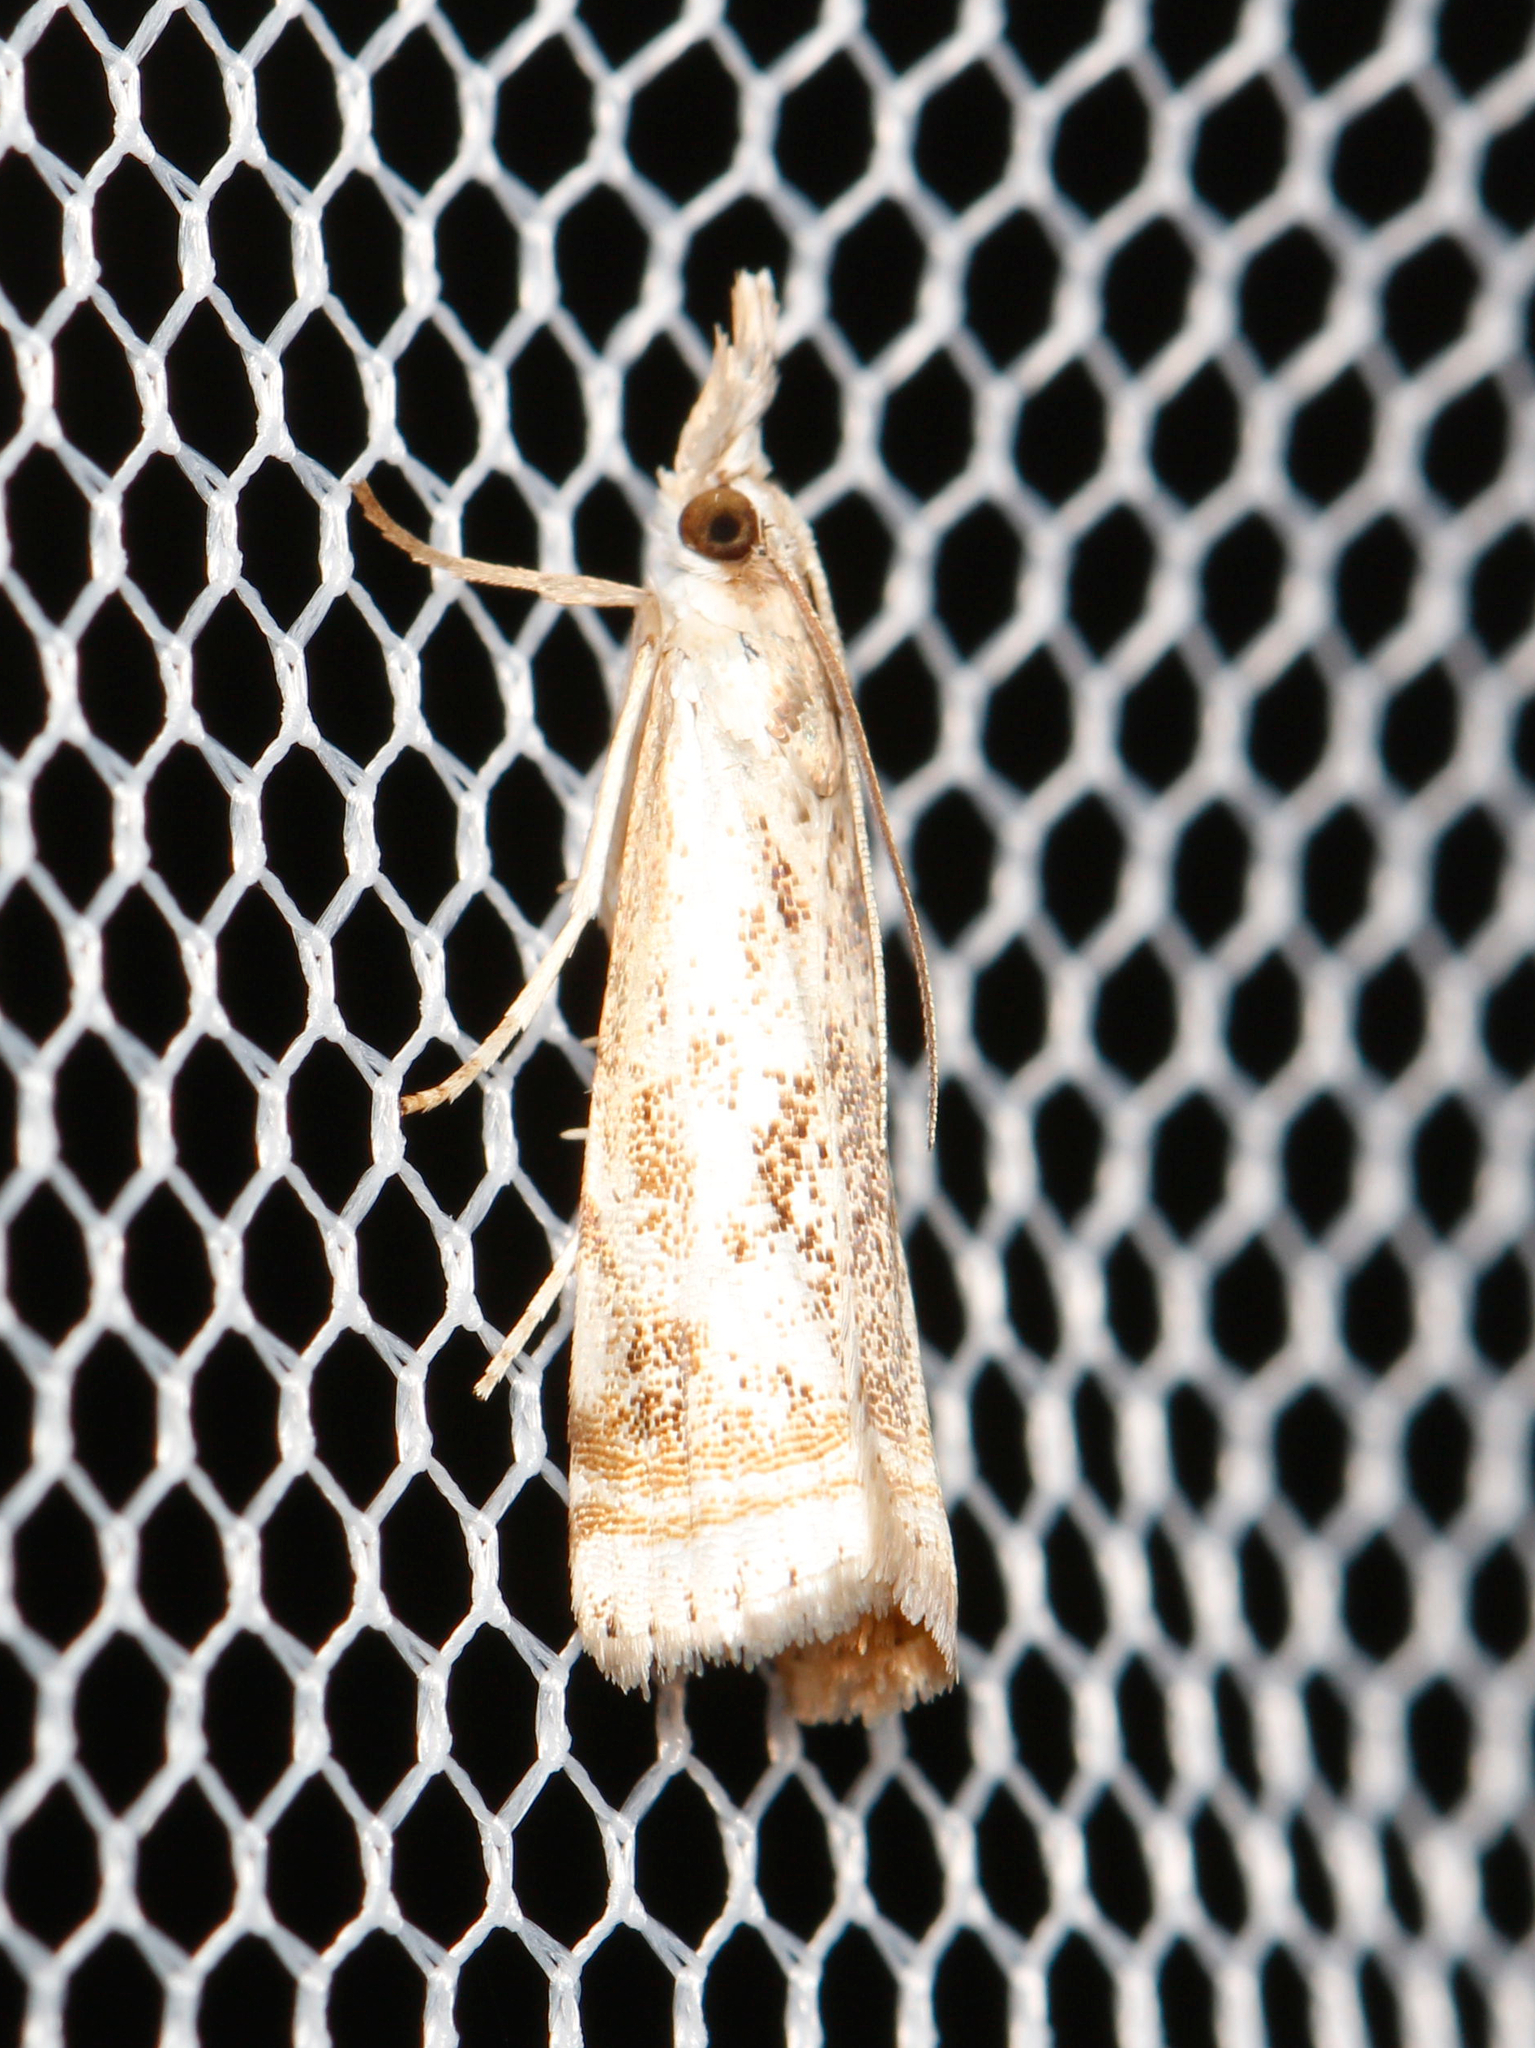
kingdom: Animalia
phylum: Arthropoda
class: Insecta
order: Lepidoptera
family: Crambidae
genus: Microcrambus
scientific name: Microcrambus elegans
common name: Elegant grass-veneer
